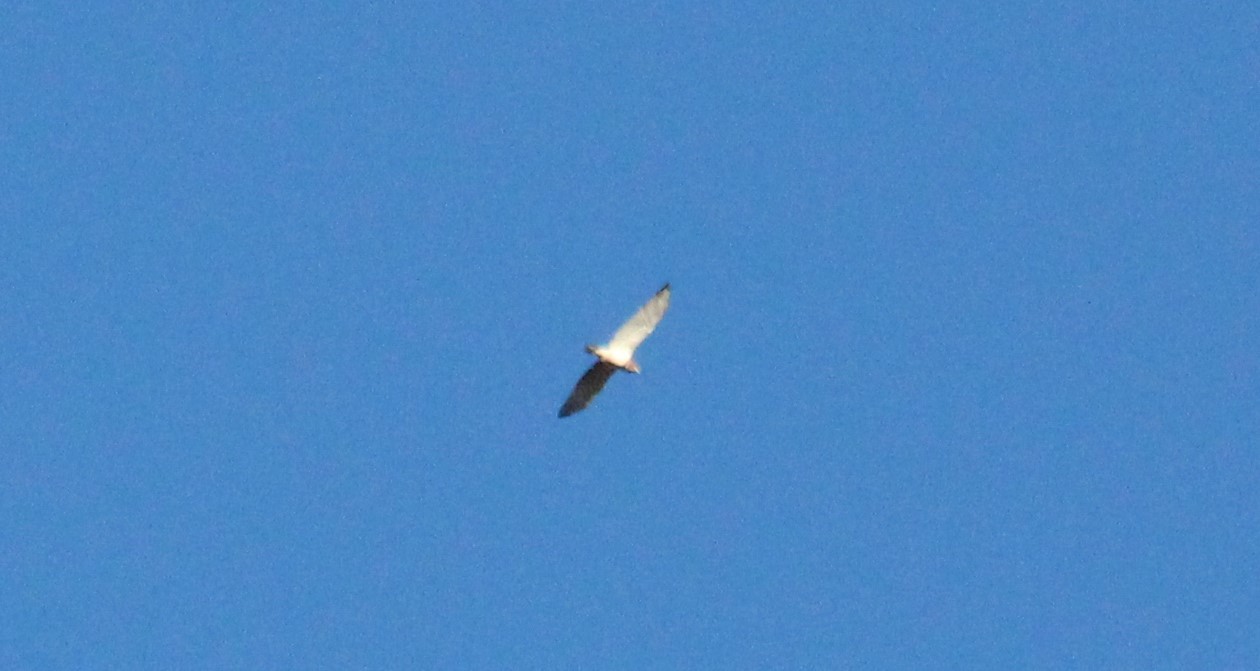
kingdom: Animalia
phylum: Chordata
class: Aves
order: Accipitriformes
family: Accipitridae
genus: Circaetus
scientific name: Circaetus gallicus
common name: Short-toed snake eagle
